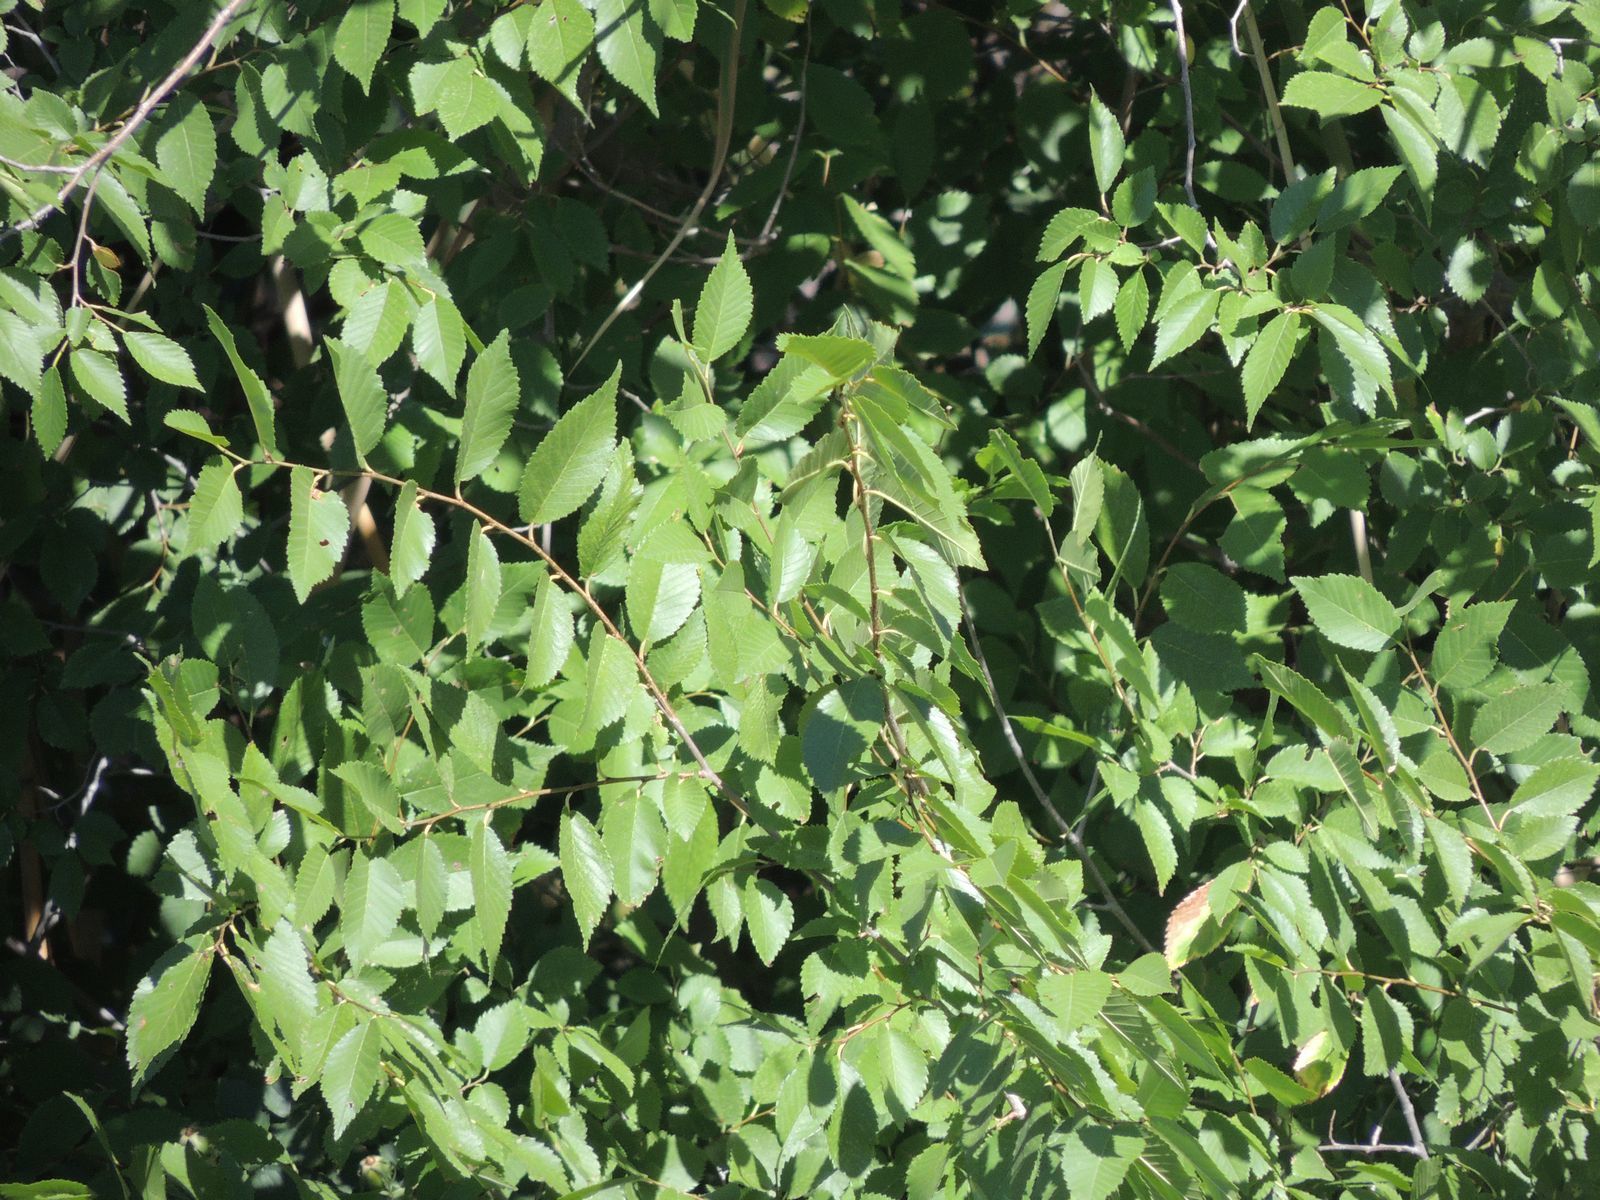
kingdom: Plantae
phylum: Tracheophyta
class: Magnoliopsida
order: Rosales
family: Ulmaceae
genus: Ulmus
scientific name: Ulmus pumila
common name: Siberian elm
